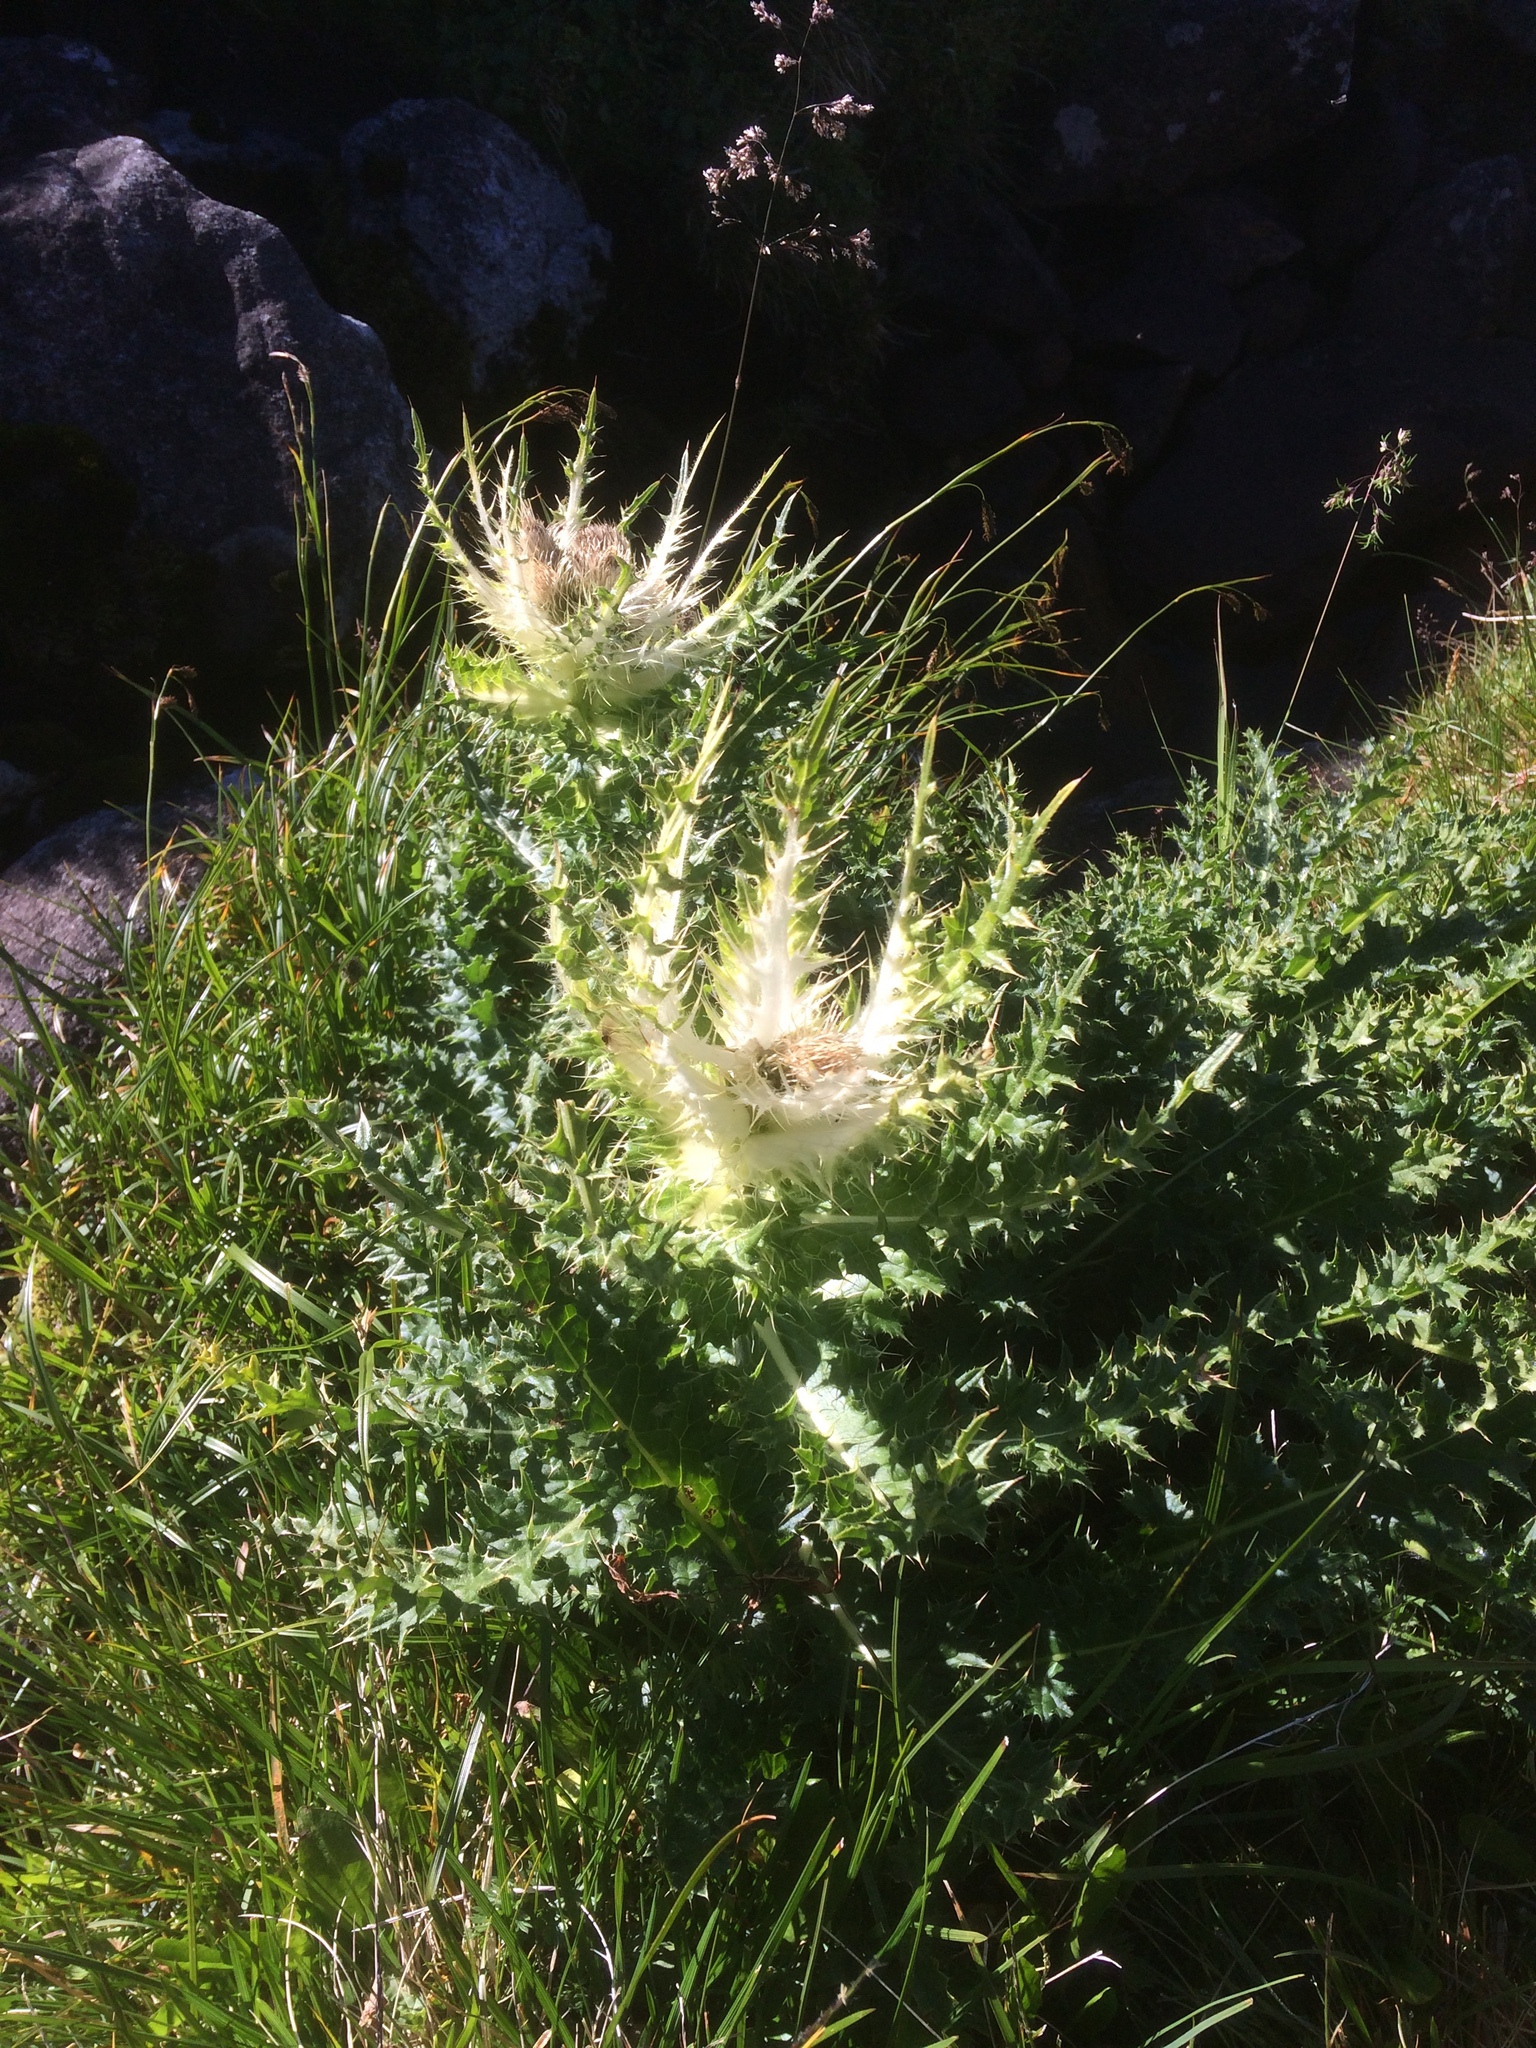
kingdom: Plantae
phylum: Tracheophyta
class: Magnoliopsida
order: Asterales
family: Asteraceae
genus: Cirsium
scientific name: Cirsium spinosissimum
